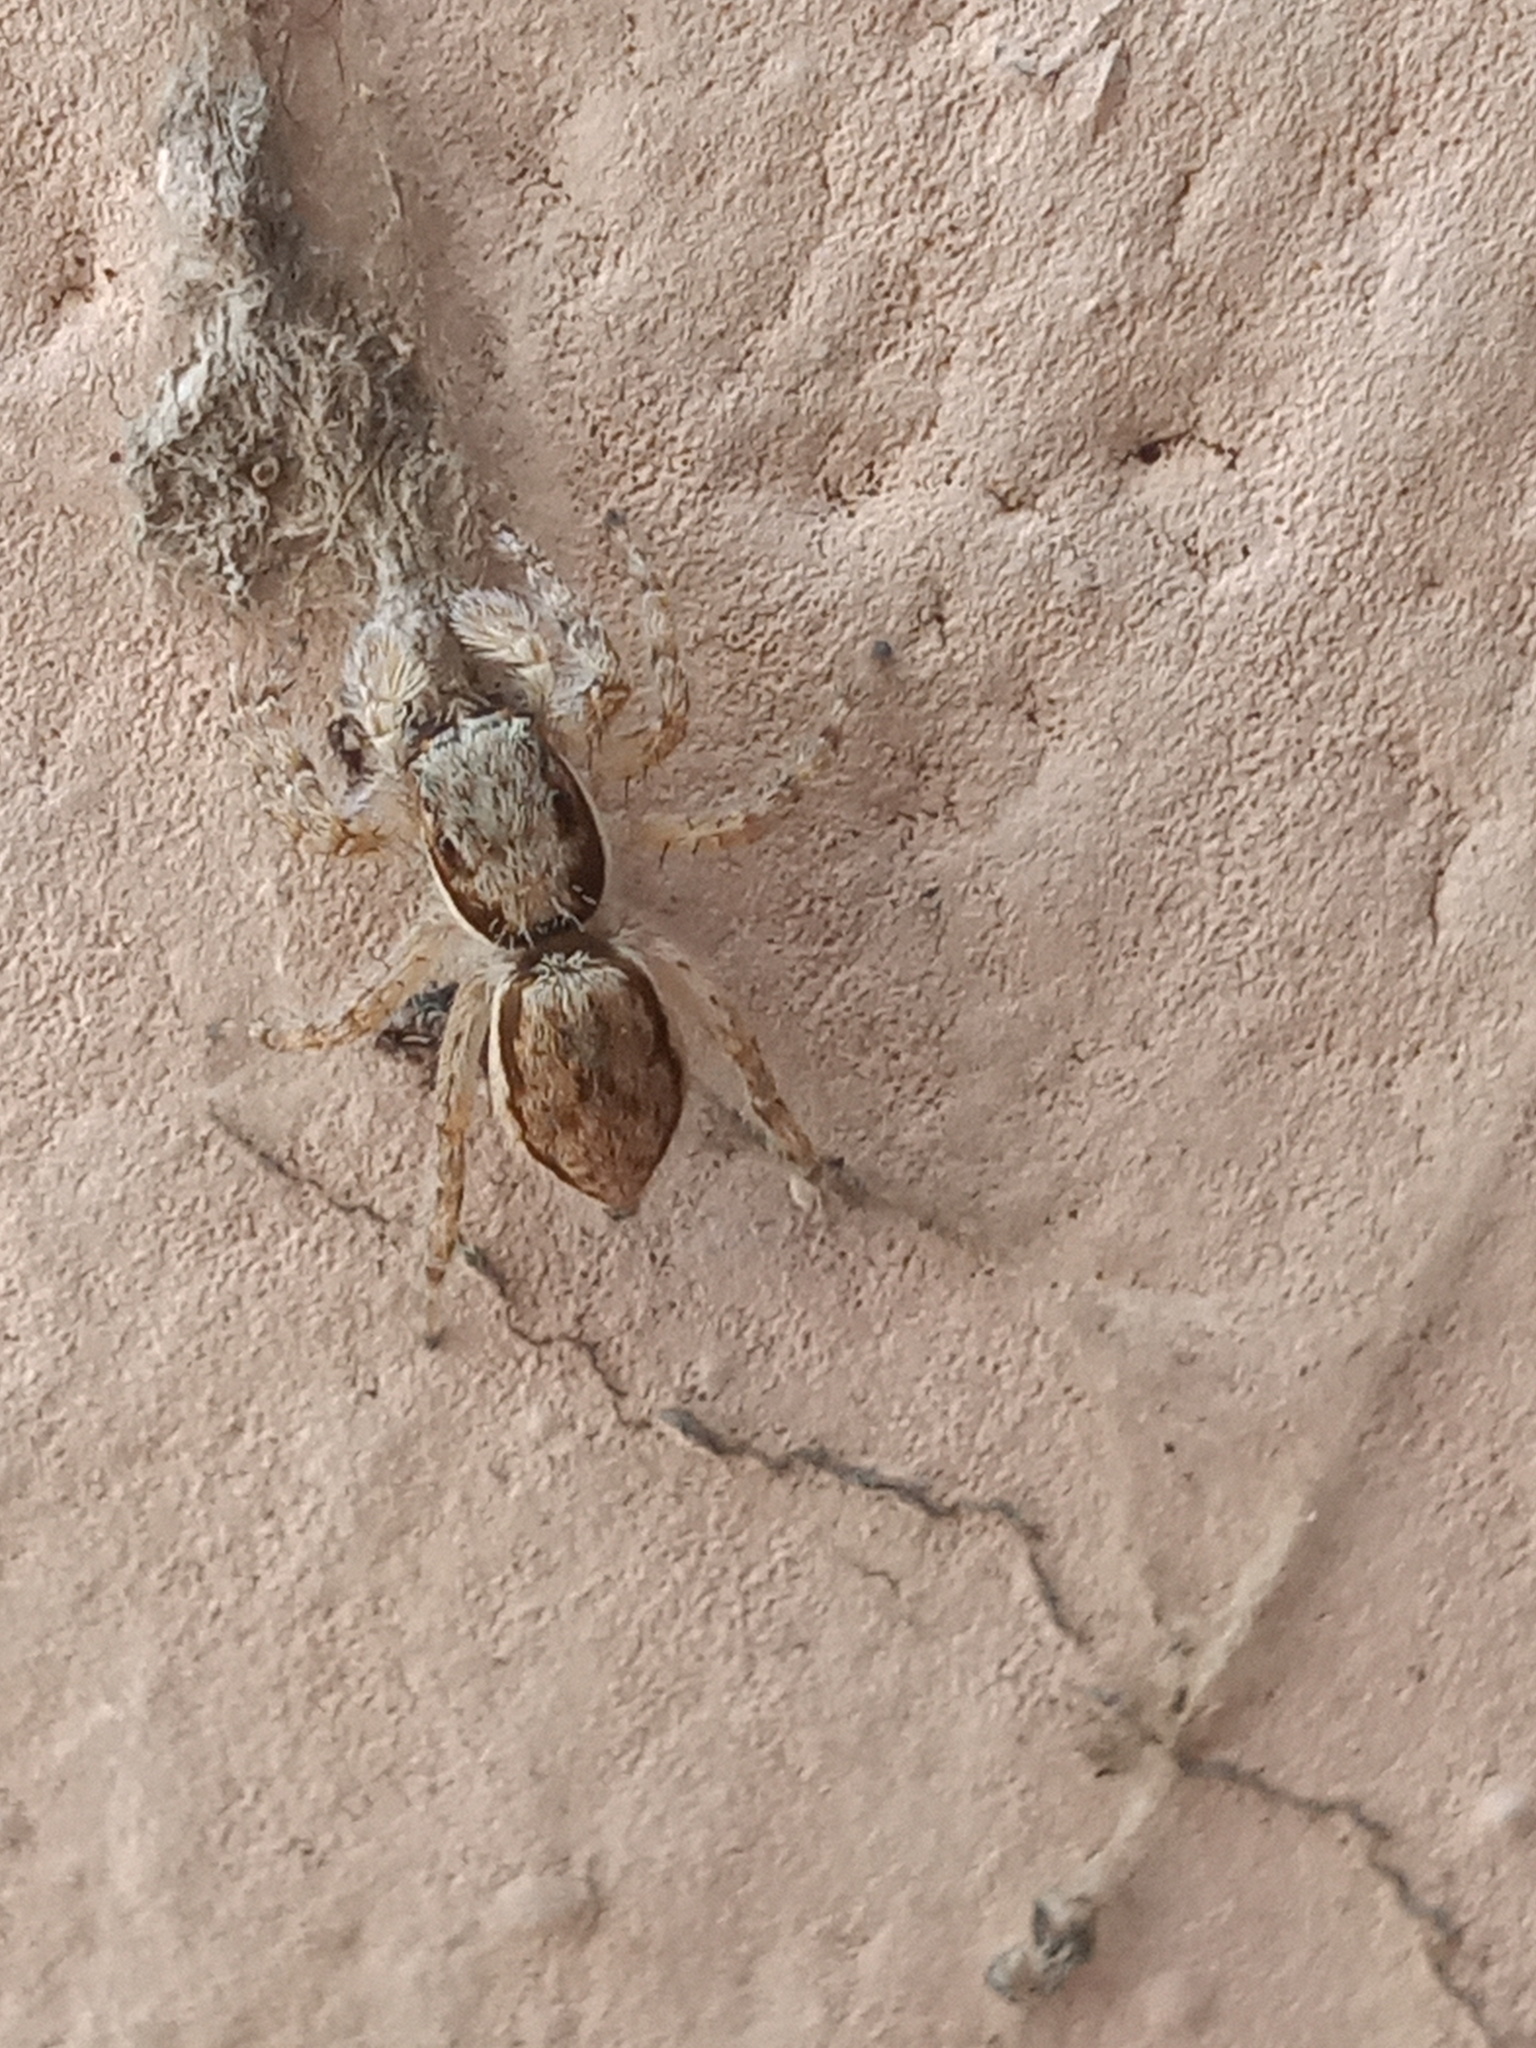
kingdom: Animalia
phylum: Arthropoda
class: Arachnida
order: Araneae
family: Salticidae
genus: Menemerus
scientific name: Menemerus bivittatus
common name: Gray wall jumper
